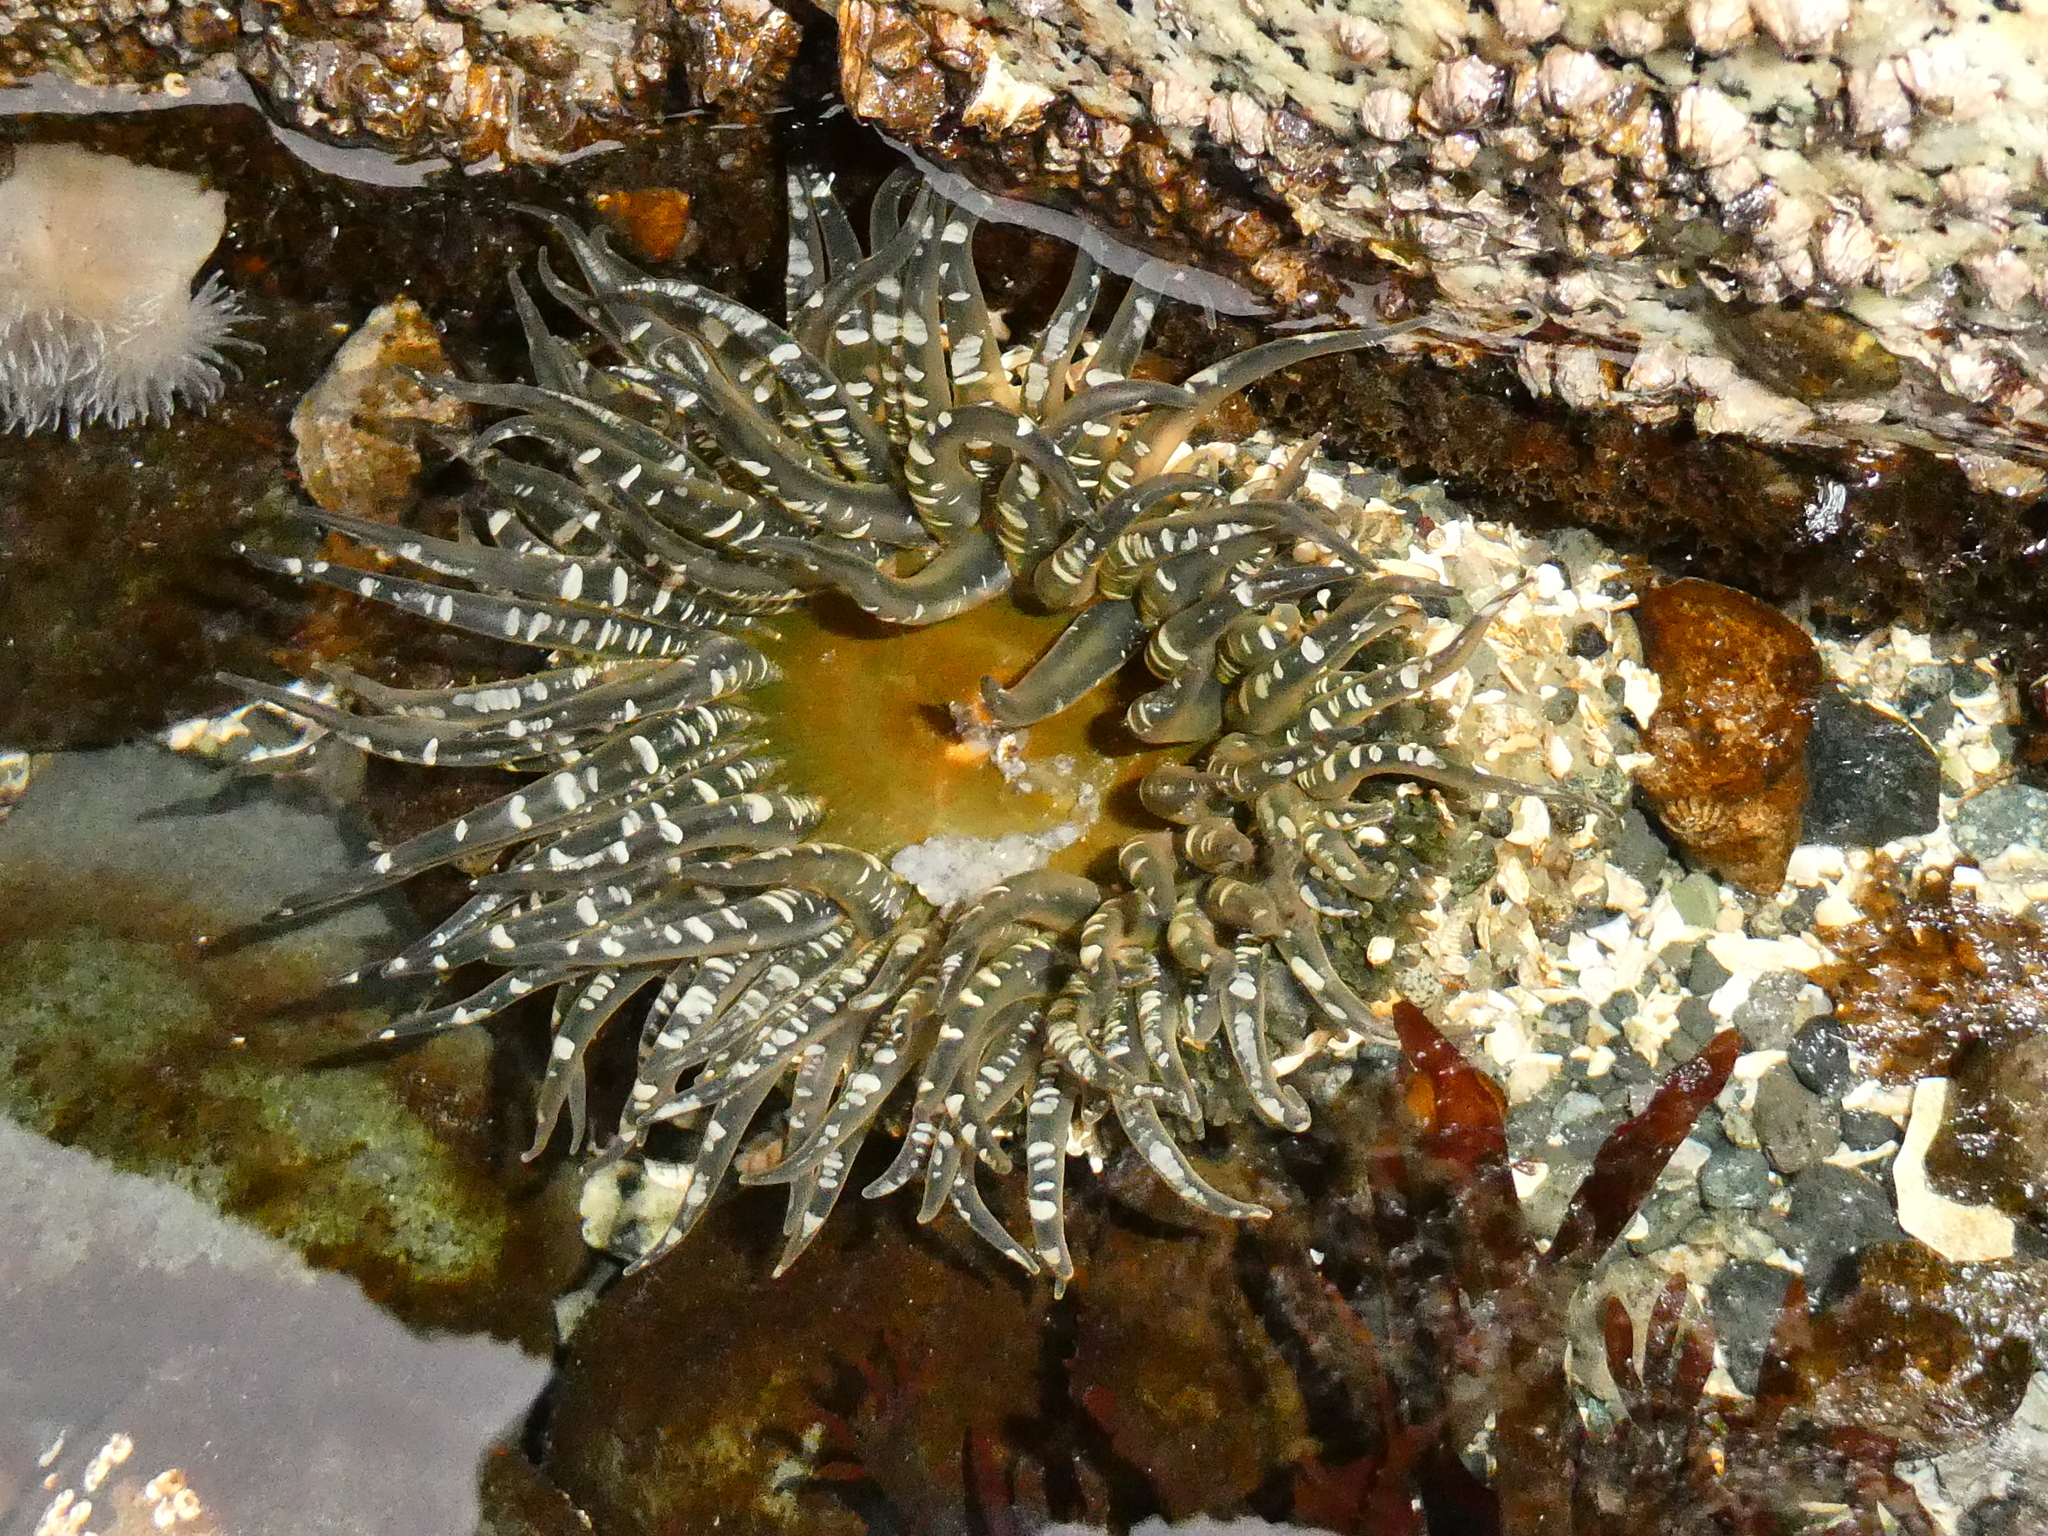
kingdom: Animalia
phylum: Cnidaria
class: Anthozoa
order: Actiniaria
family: Actiniidae
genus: Anthopleura
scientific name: Anthopleura artemisia
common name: Buried sea anemone
